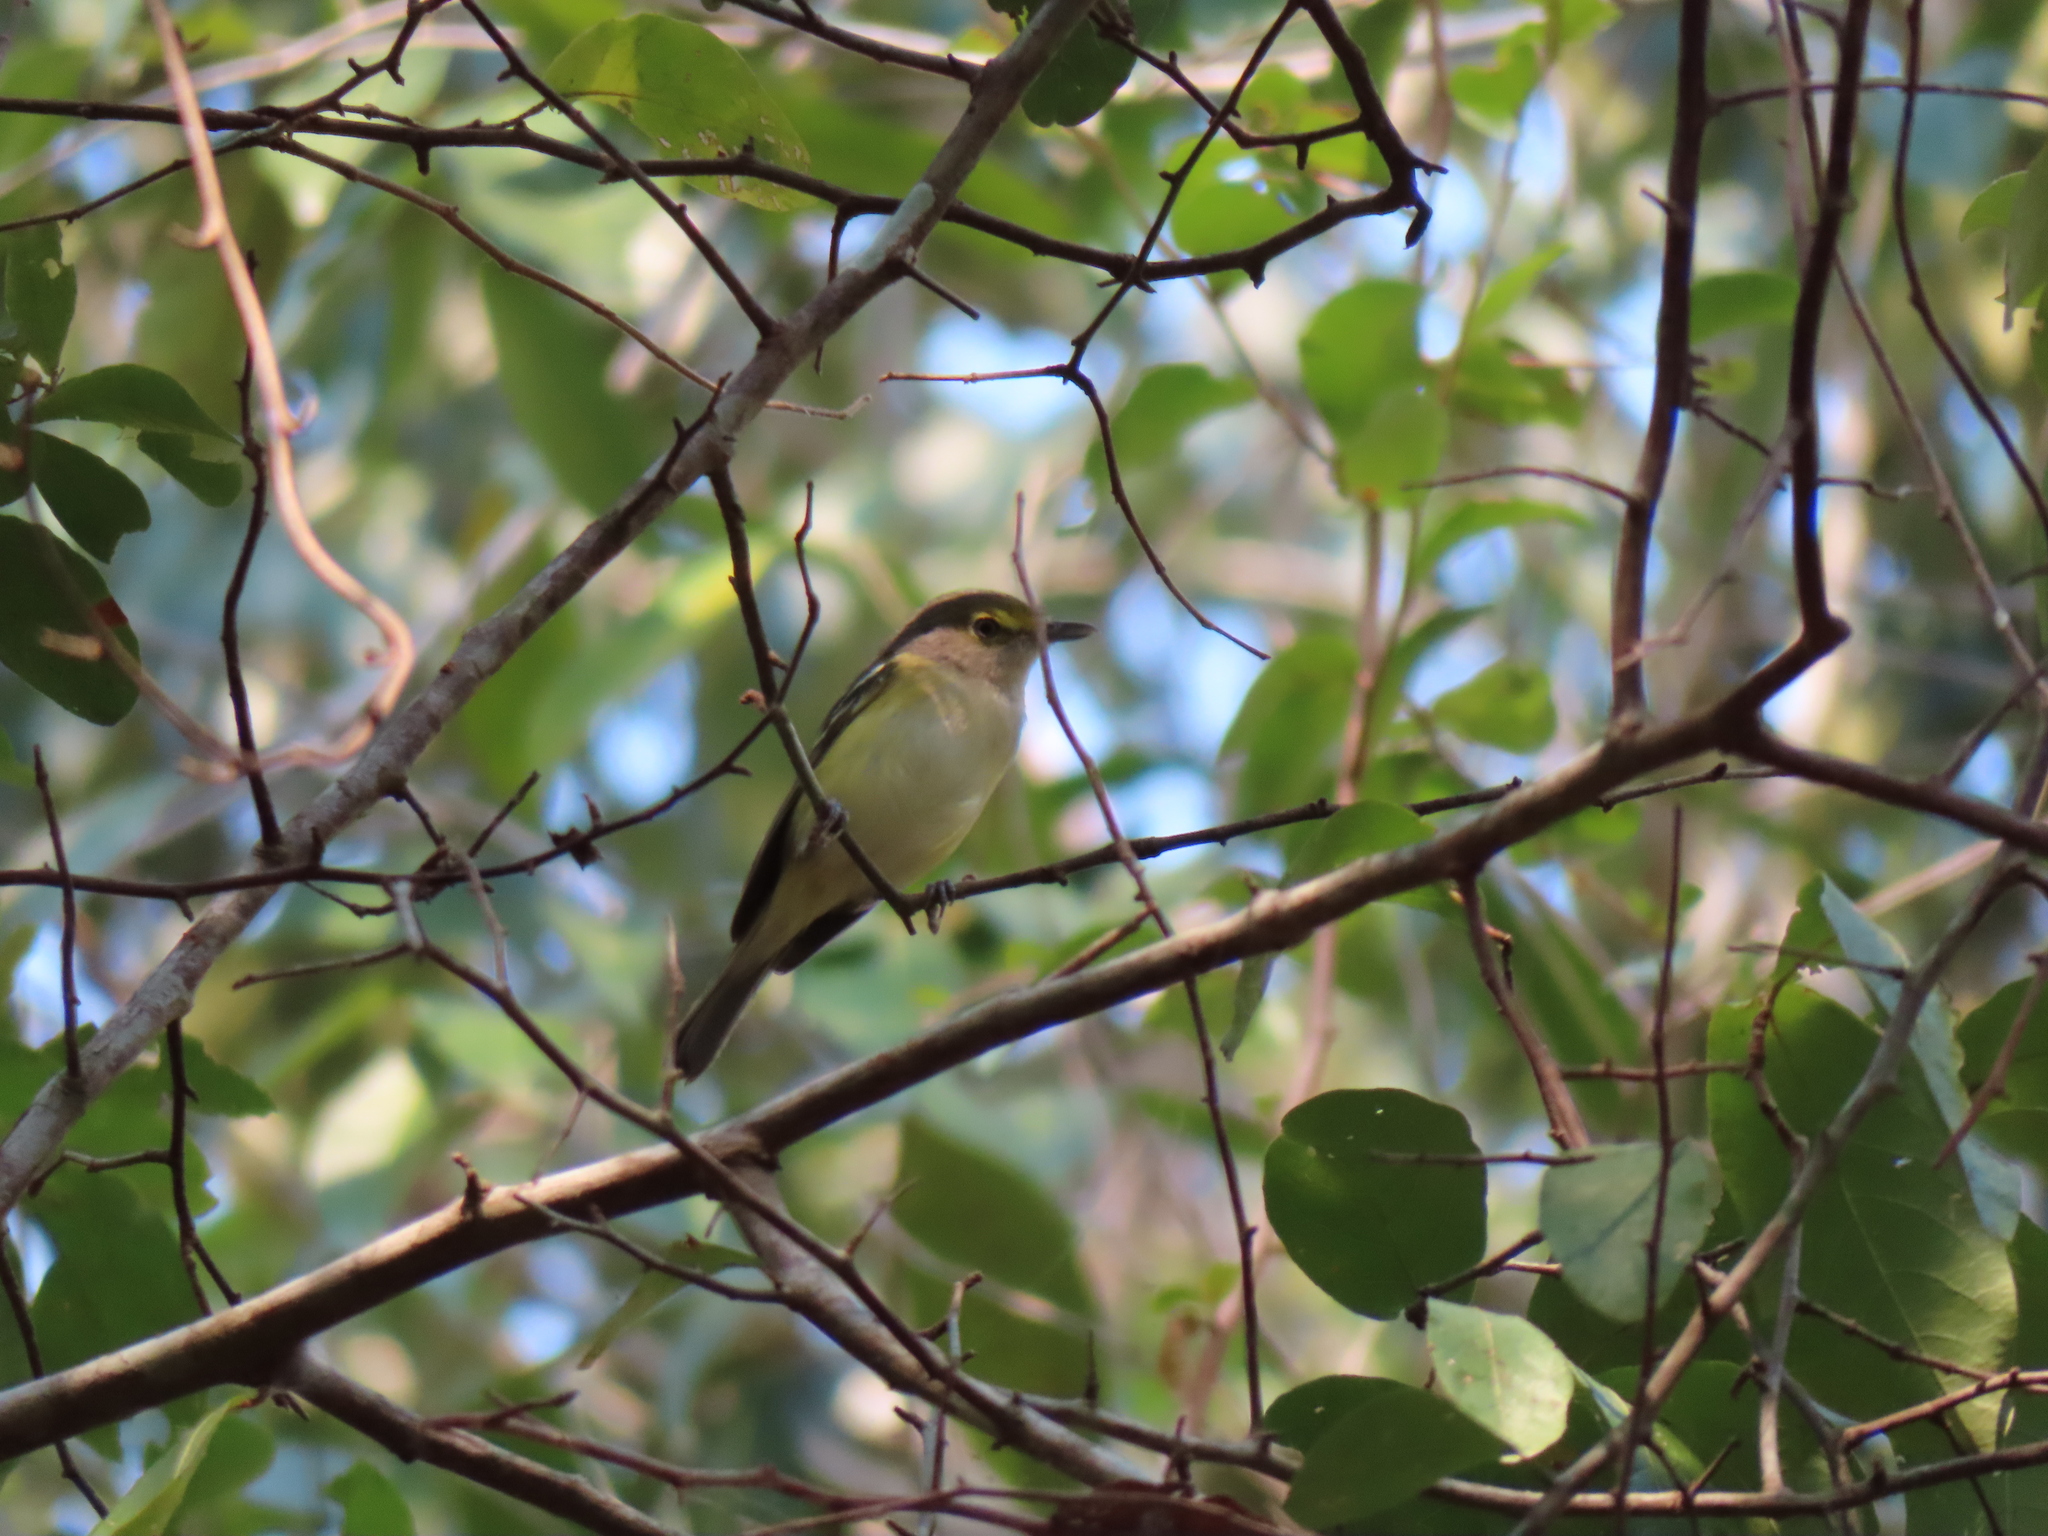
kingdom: Animalia
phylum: Chordata
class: Aves
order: Passeriformes
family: Vireonidae
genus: Vireo
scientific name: Vireo griseus
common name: White-eyed vireo
